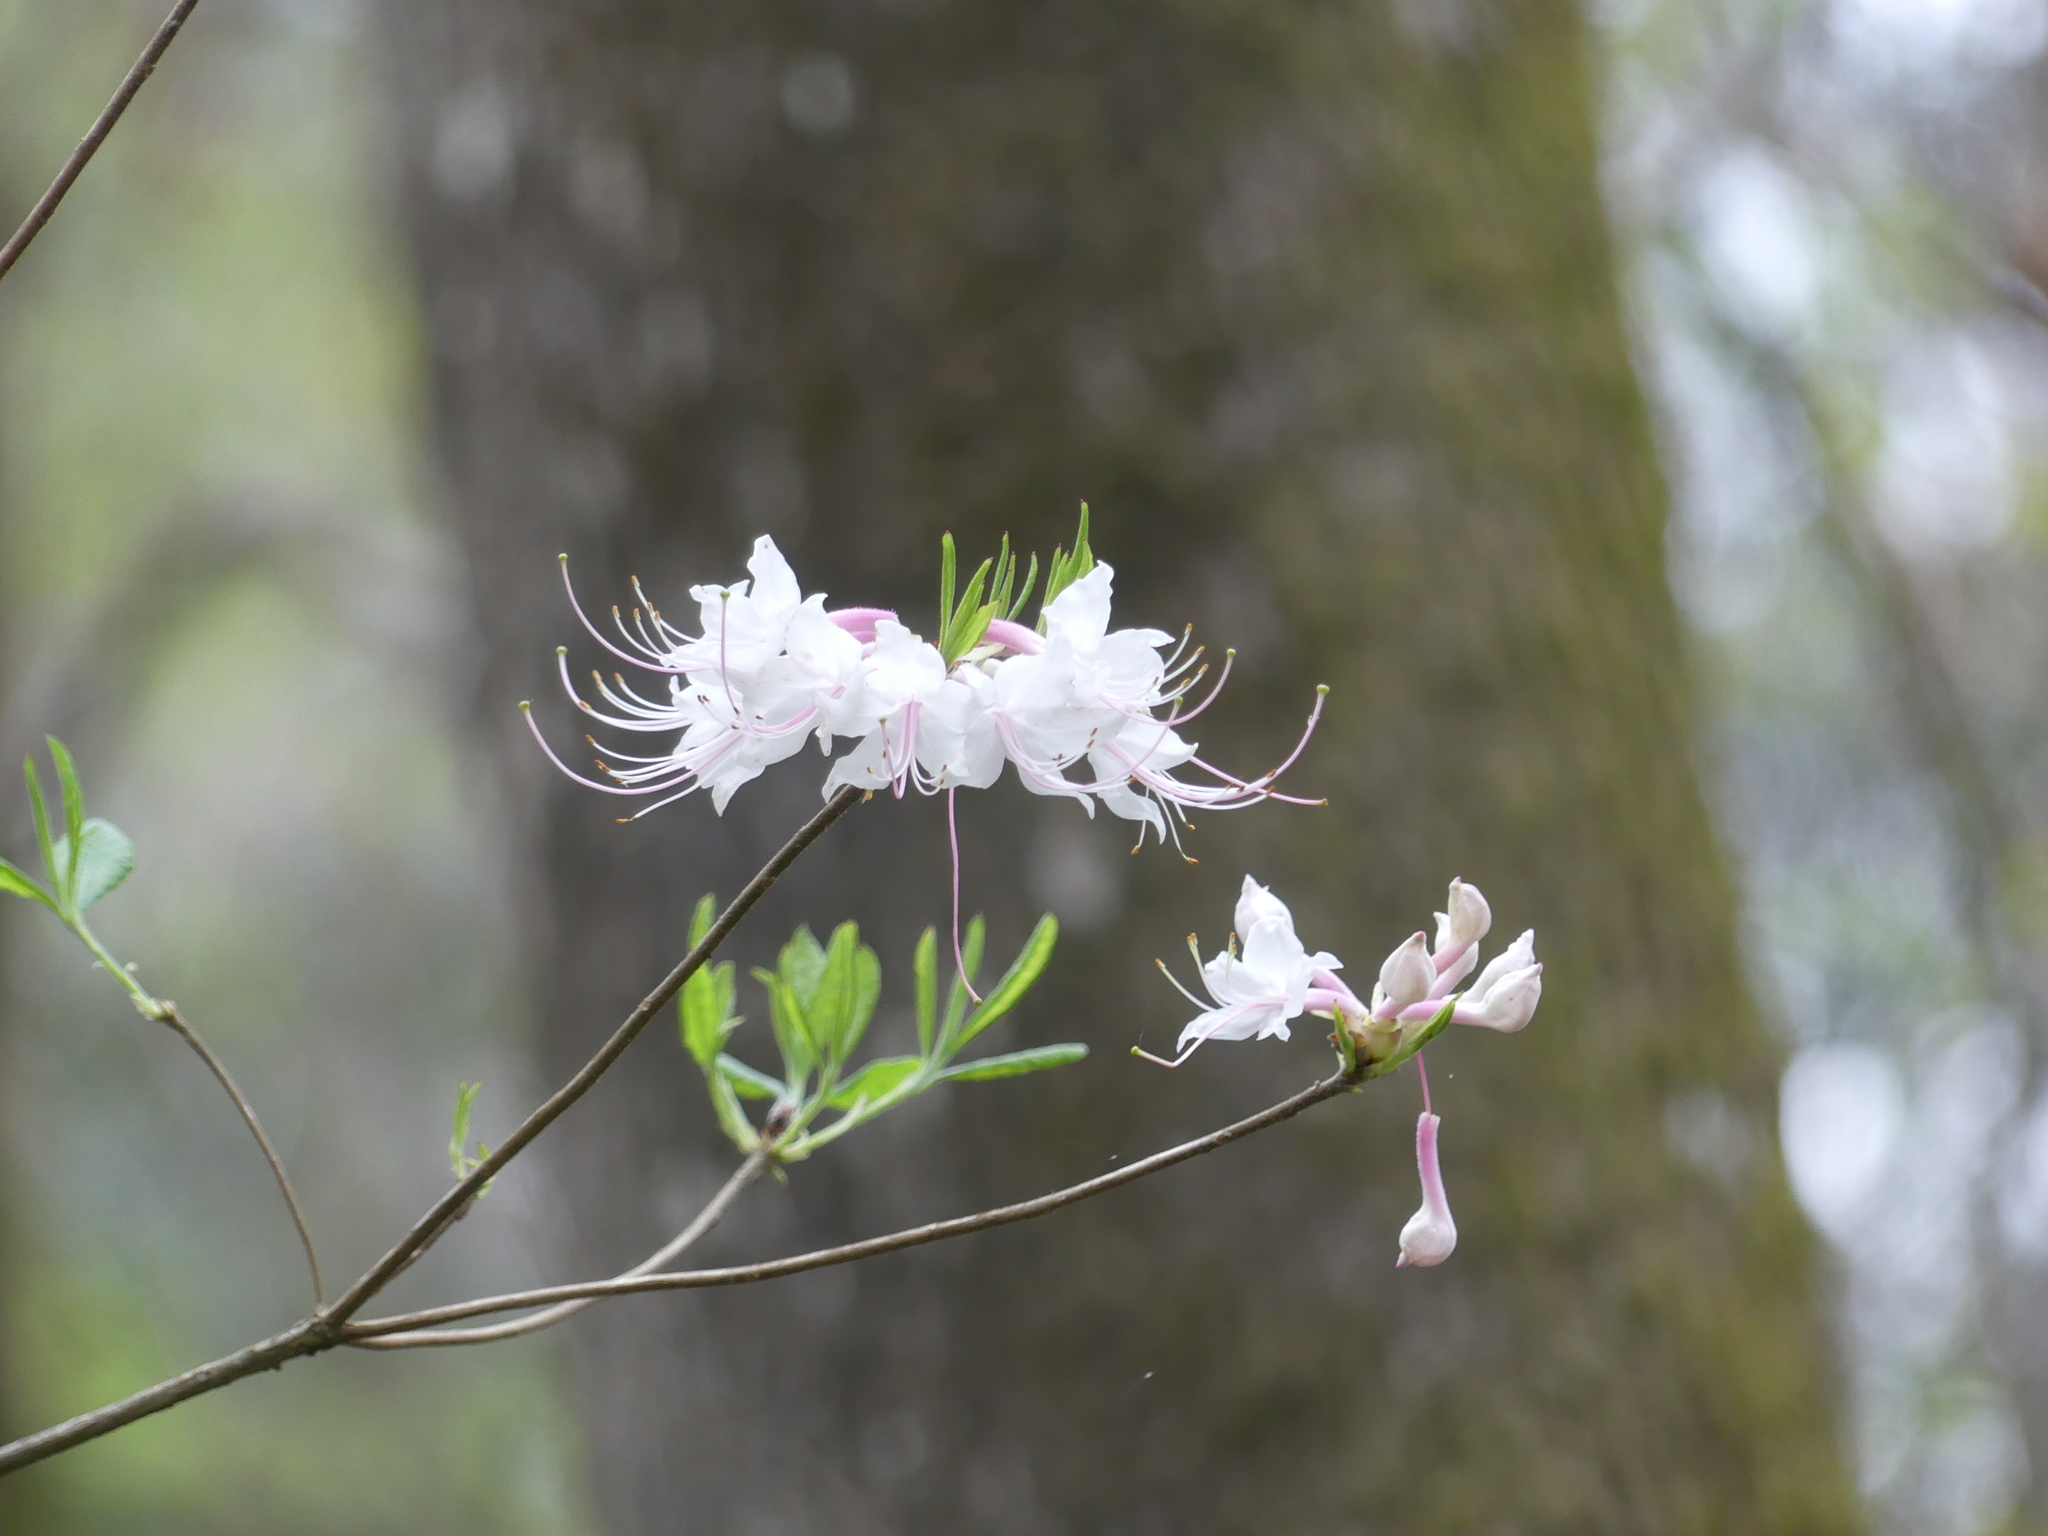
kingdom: Plantae
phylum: Tracheophyta
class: Magnoliopsida
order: Ericales
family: Ericaceae
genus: Rhododendron
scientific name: Rhododendron canescens
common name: Mountain azalea
